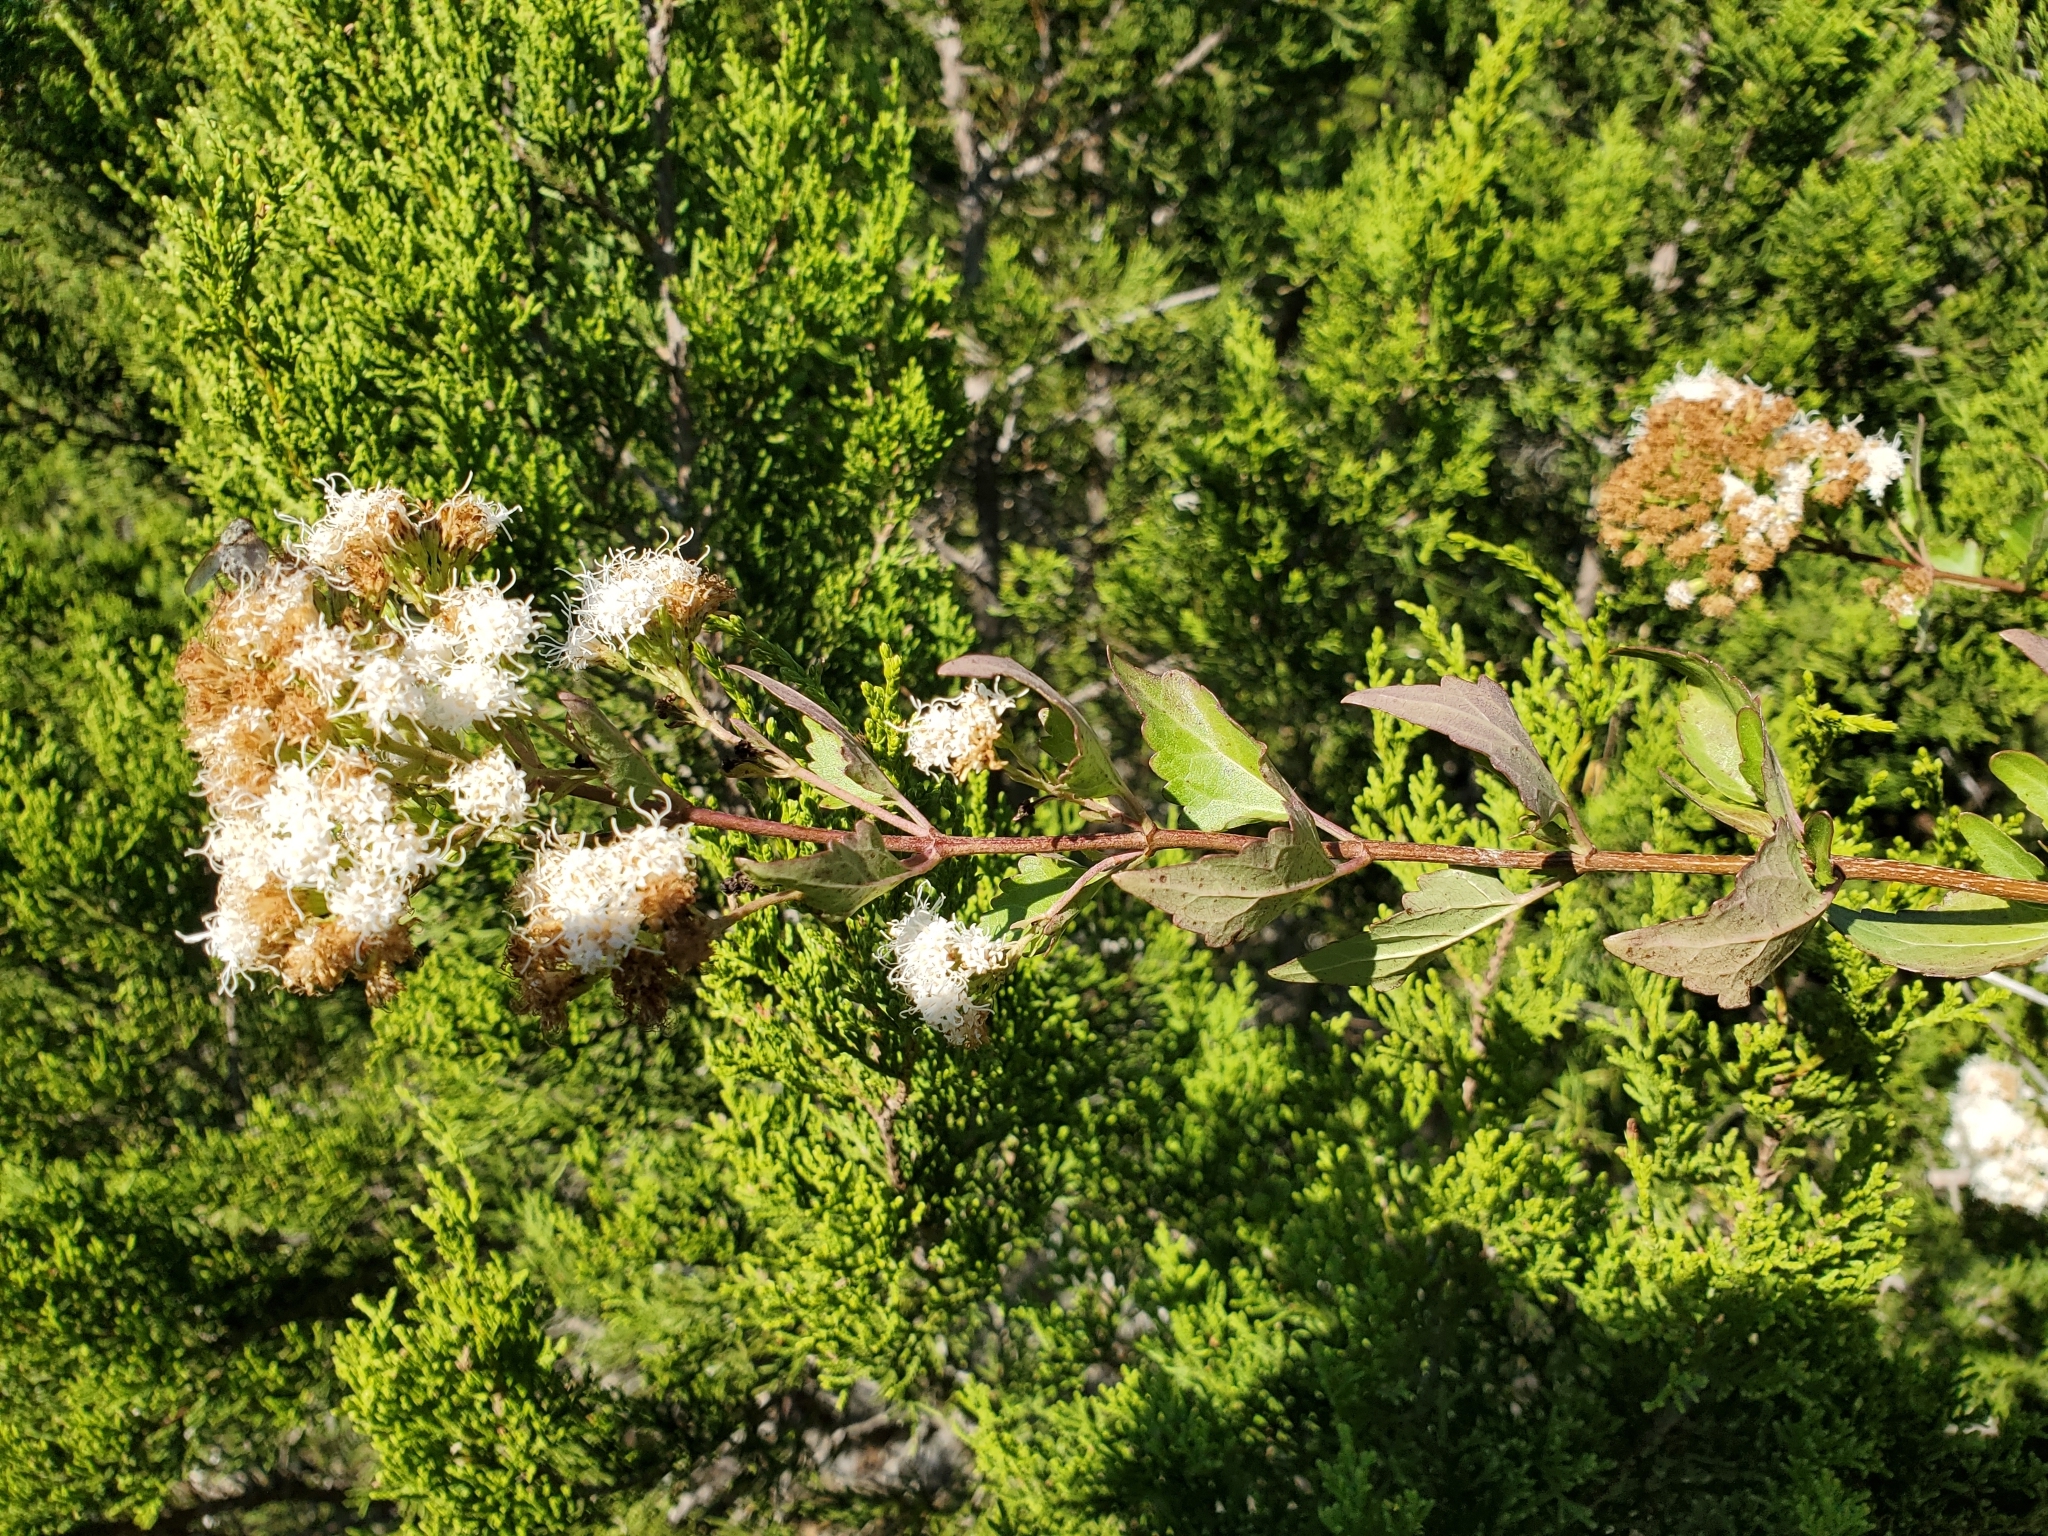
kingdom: Plantae
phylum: Tracheophyta
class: Magnoliopsida
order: Asterales
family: Asteraceae
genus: Ageratina
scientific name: Ageratina havanensis
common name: Havana snakeroot
